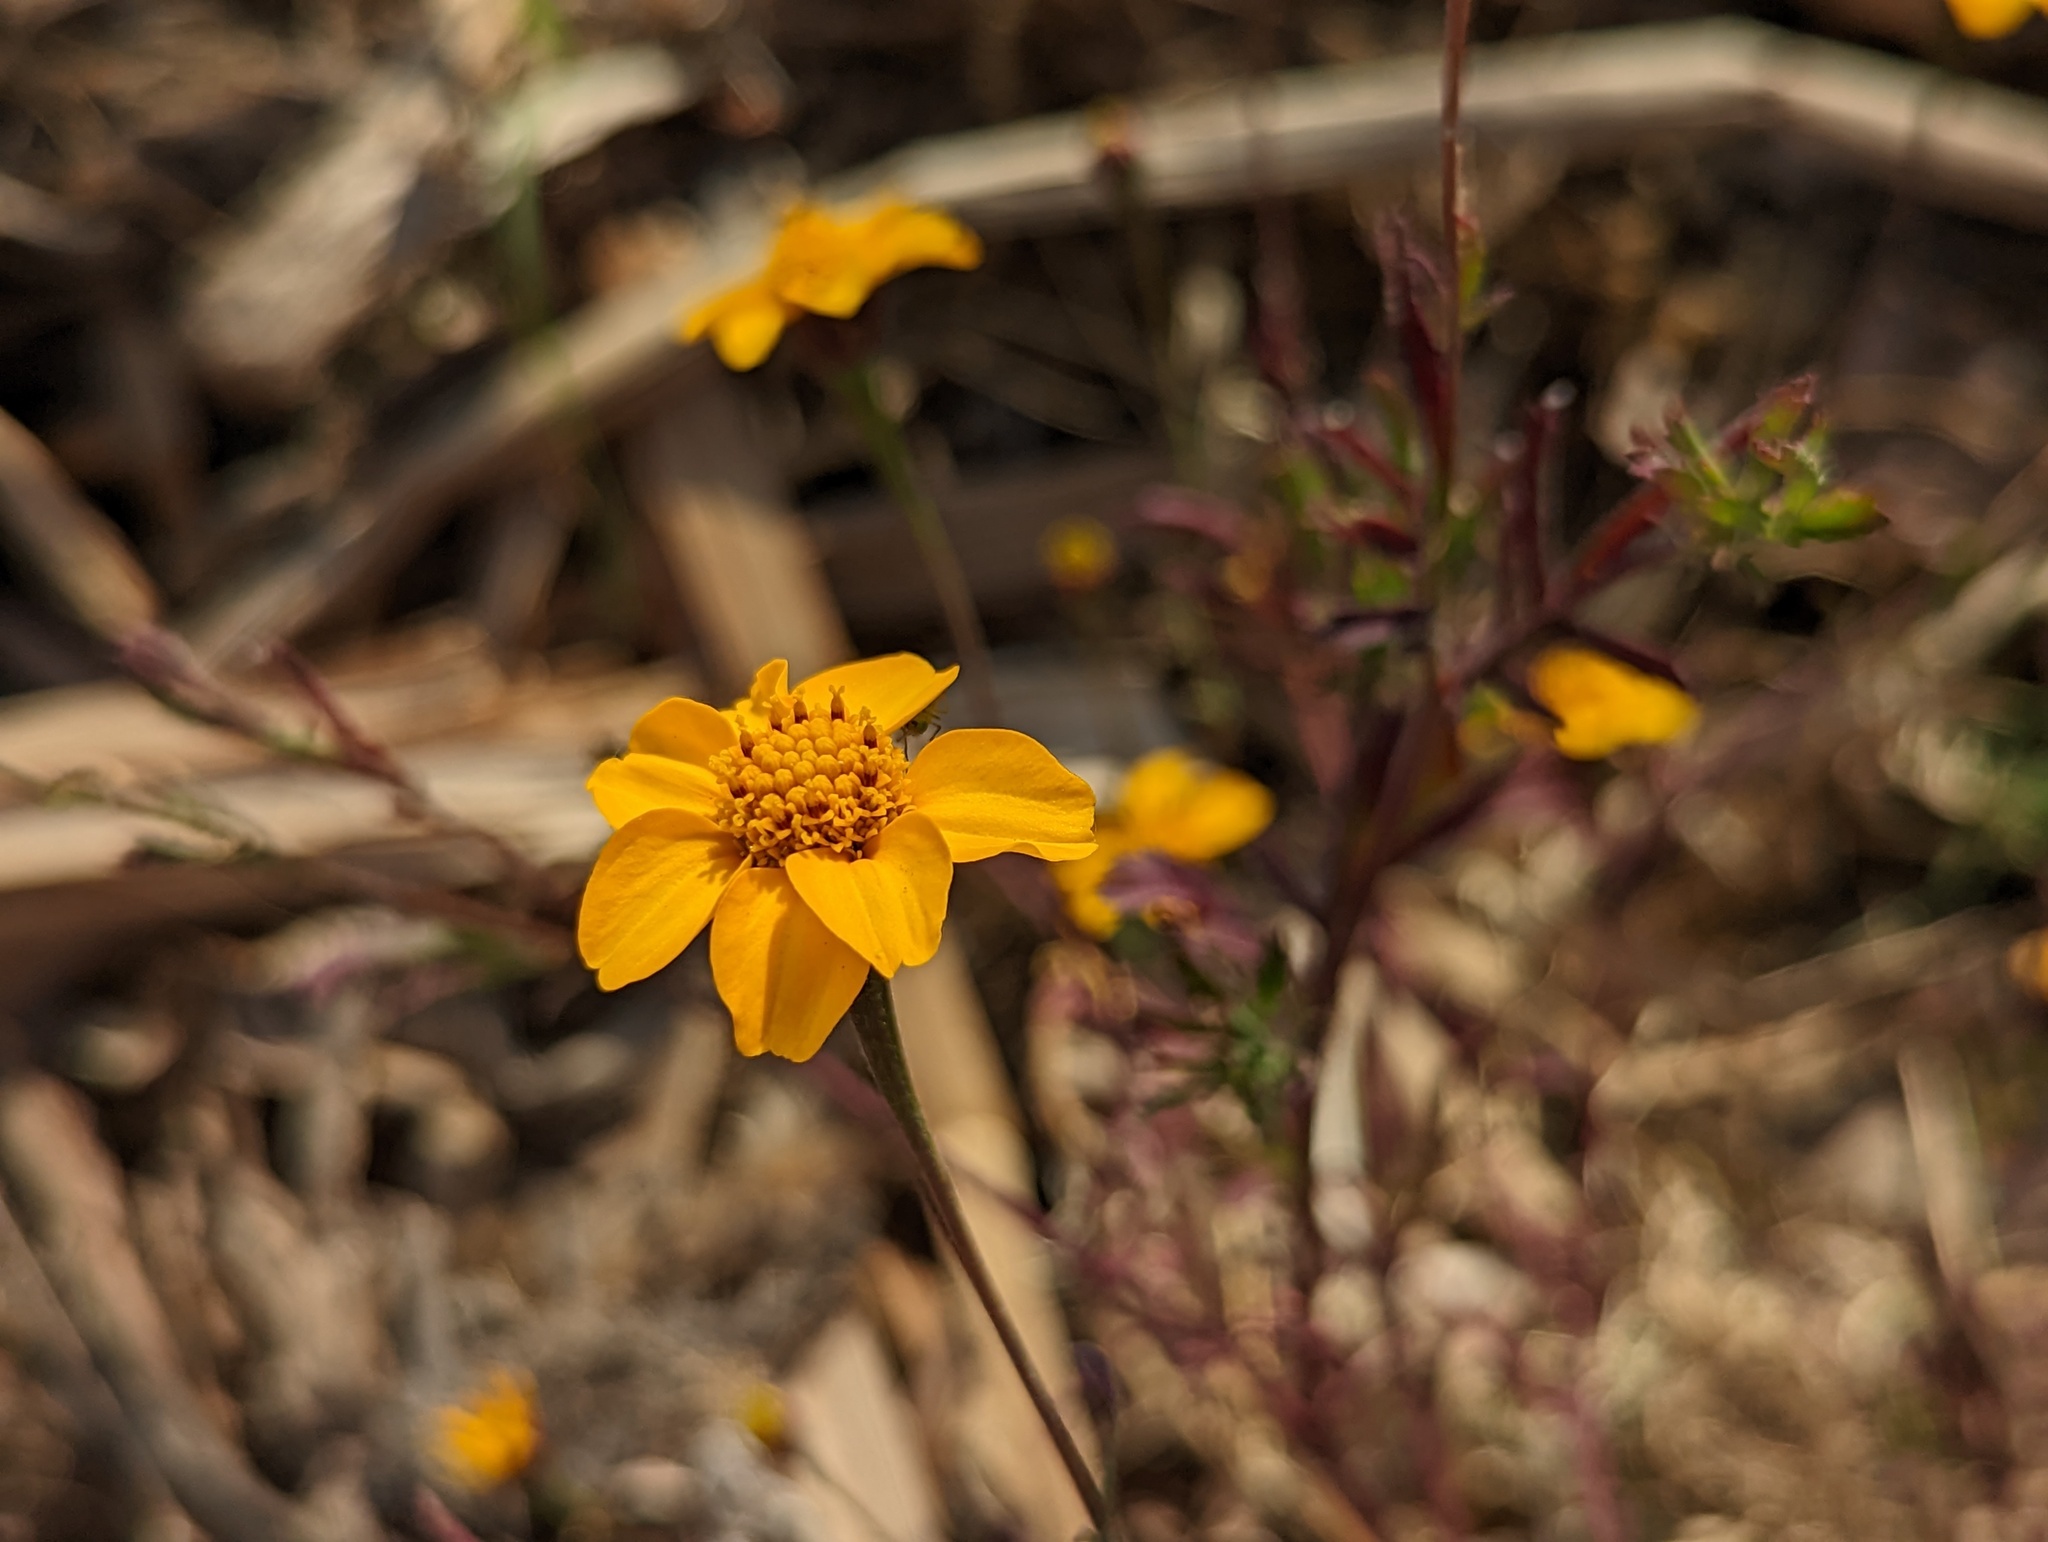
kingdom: Plantae
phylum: Tracheophyta
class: Magnoliopsida
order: Asterales
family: Asteraceae
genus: Dyssodia
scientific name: Dyssodia tagetiflora
